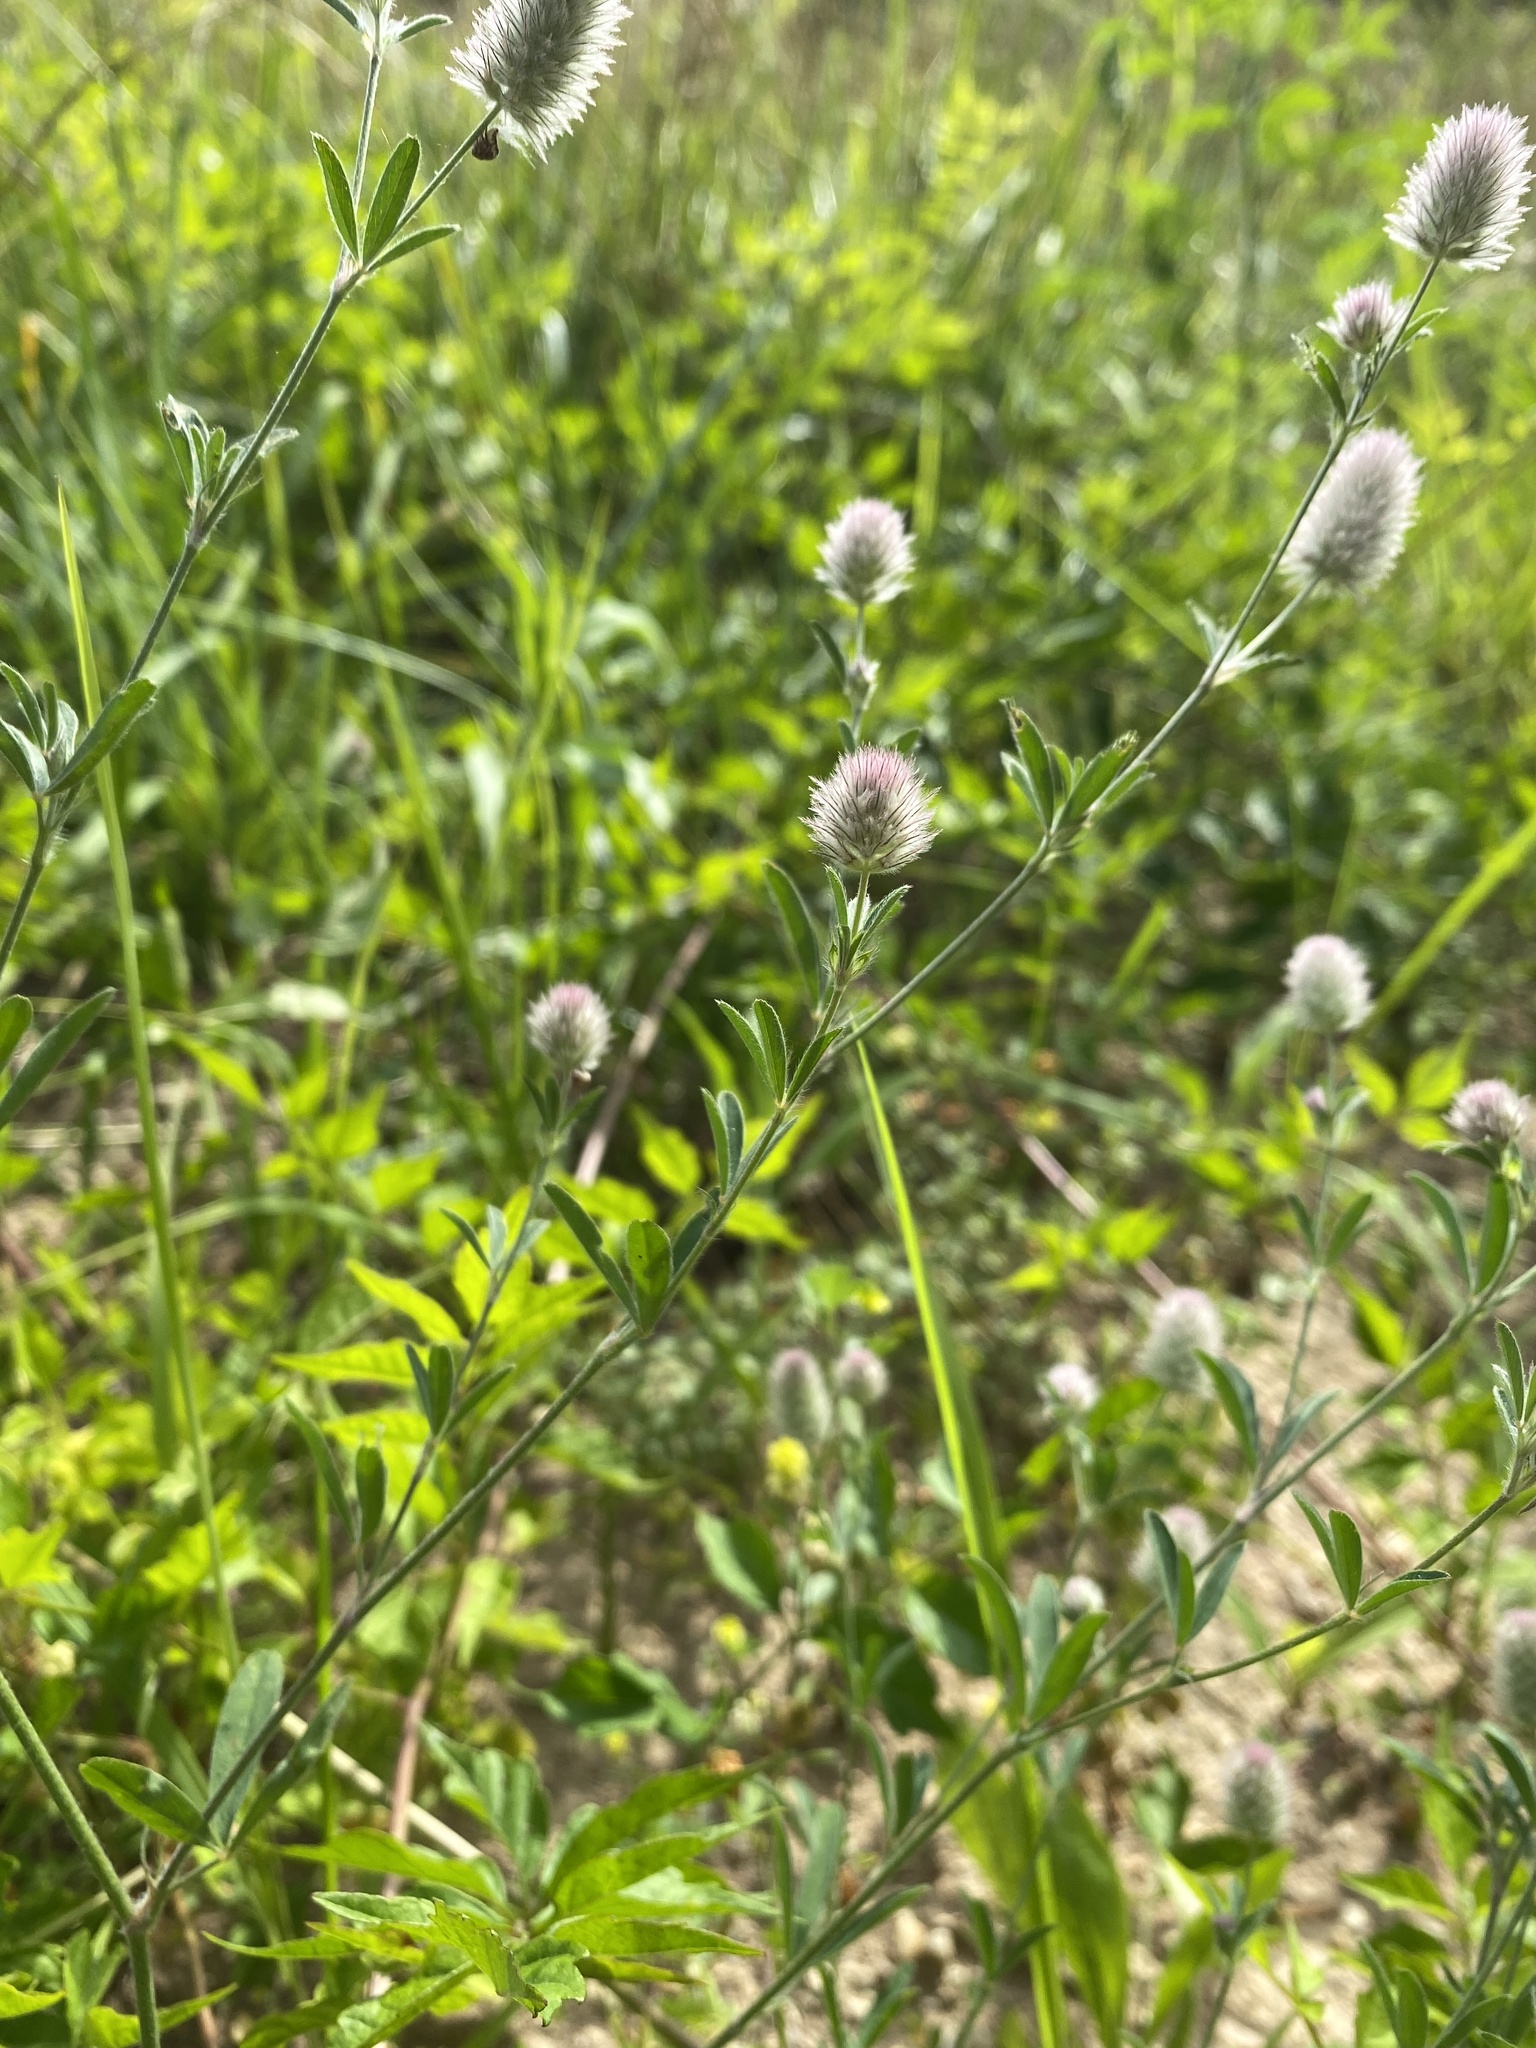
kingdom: Plantae
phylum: Tracheophyta
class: Magnoliopsida
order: Fabales
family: Fabaceae
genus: Trifolium
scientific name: Trifolium arvense
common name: Hare's-foot clover
